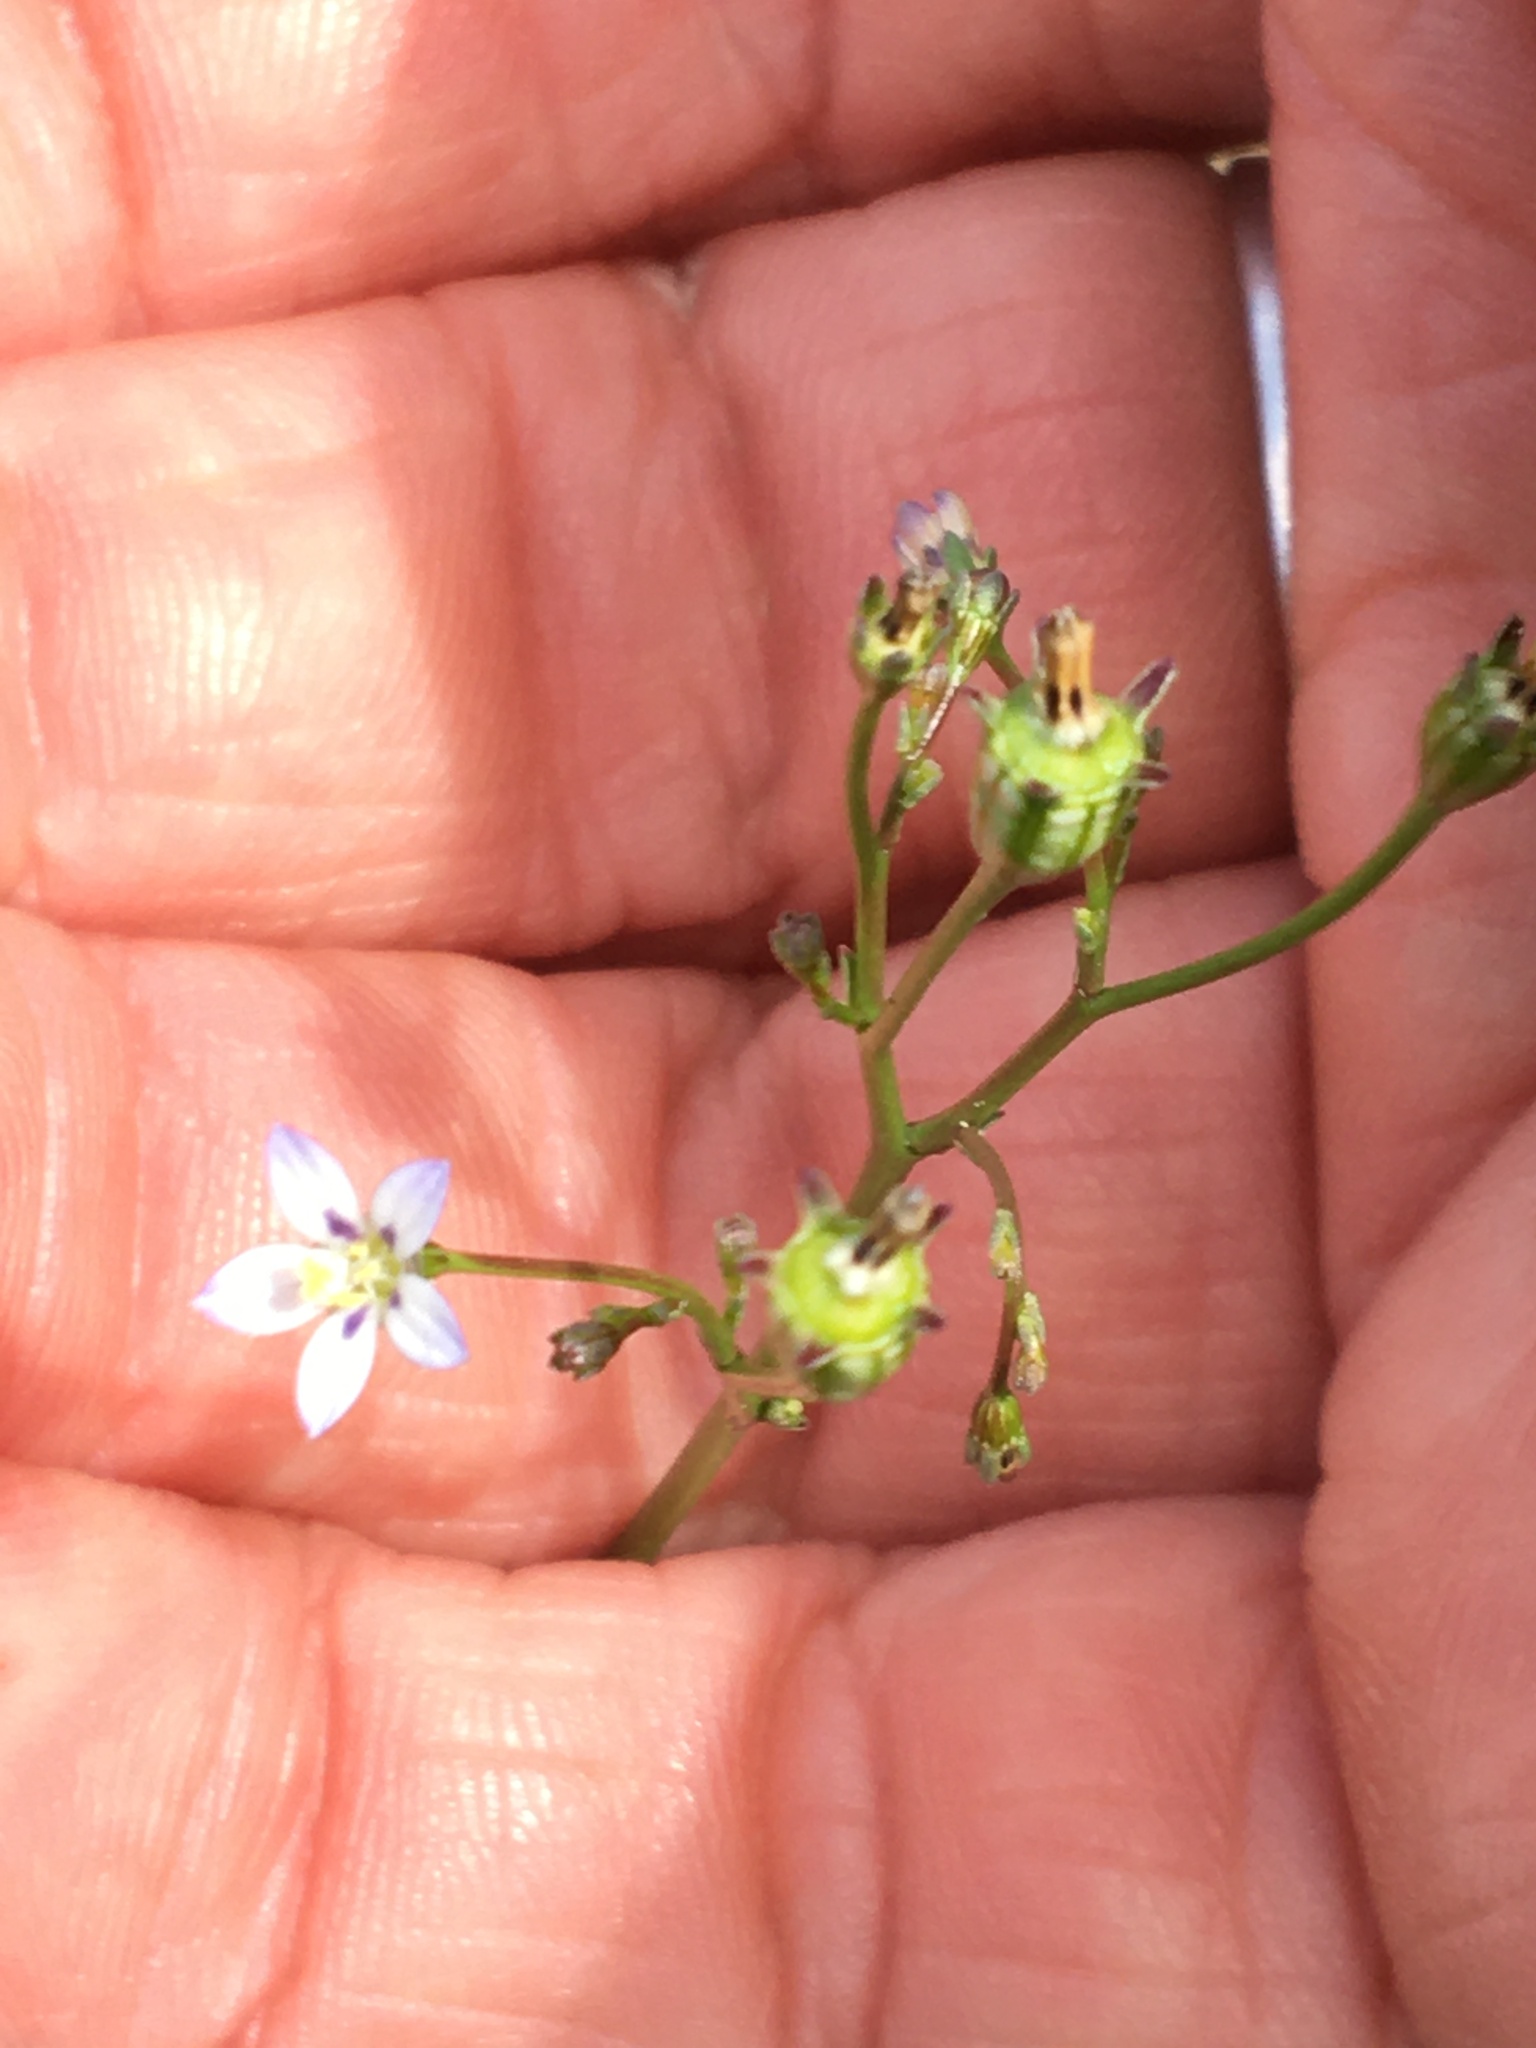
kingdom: Plantae
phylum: Tracheophyta
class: Magnoliopsida
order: Asterales
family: Campanulaceae
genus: Wahlenbergia
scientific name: Wahlenbergia androsacea
